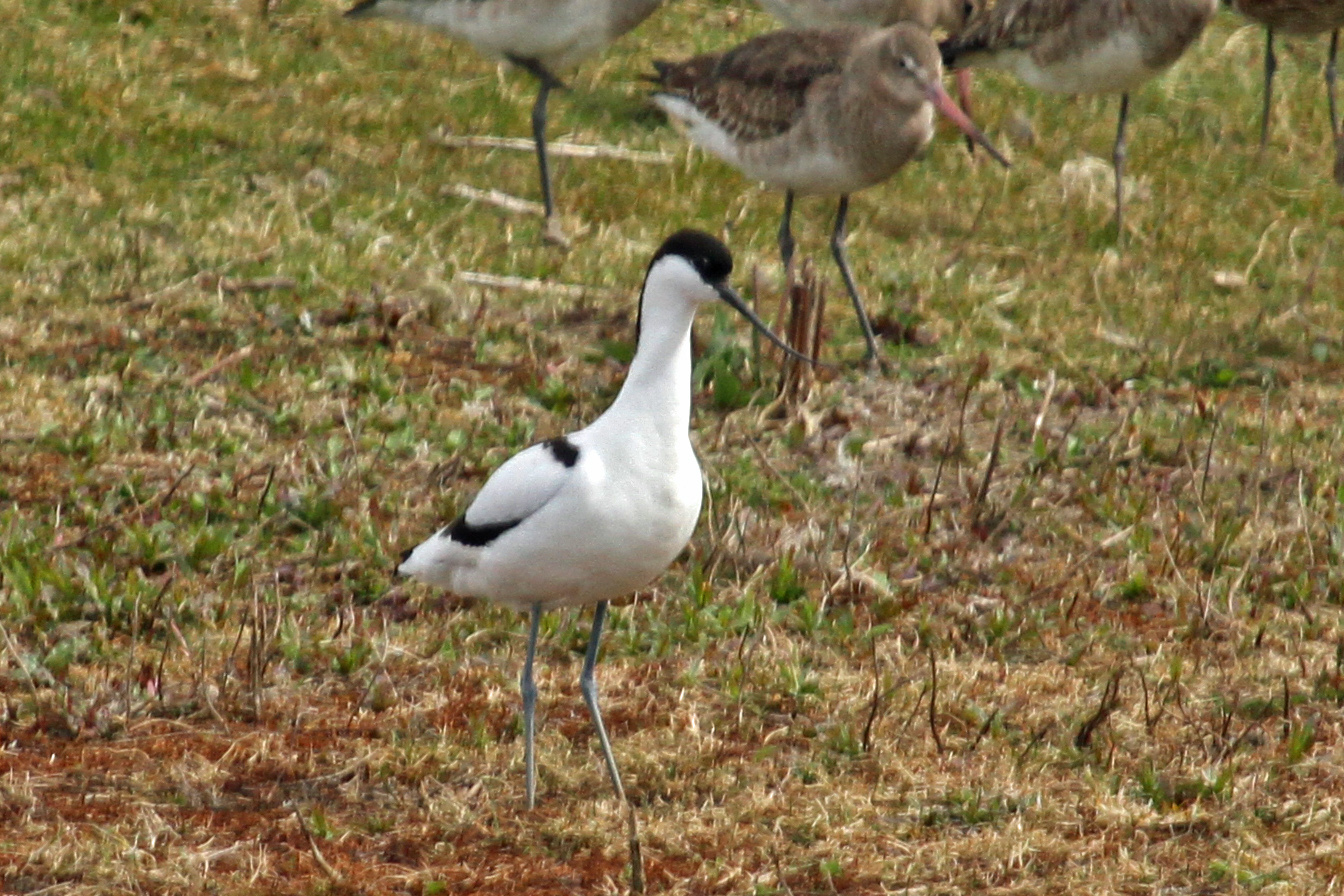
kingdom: Animalia
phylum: Chordata
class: Aves
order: Charadriiformes
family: Recurvirostridae
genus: Recurvirostra
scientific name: Recurvirostra avosetta
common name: Pied avocet
